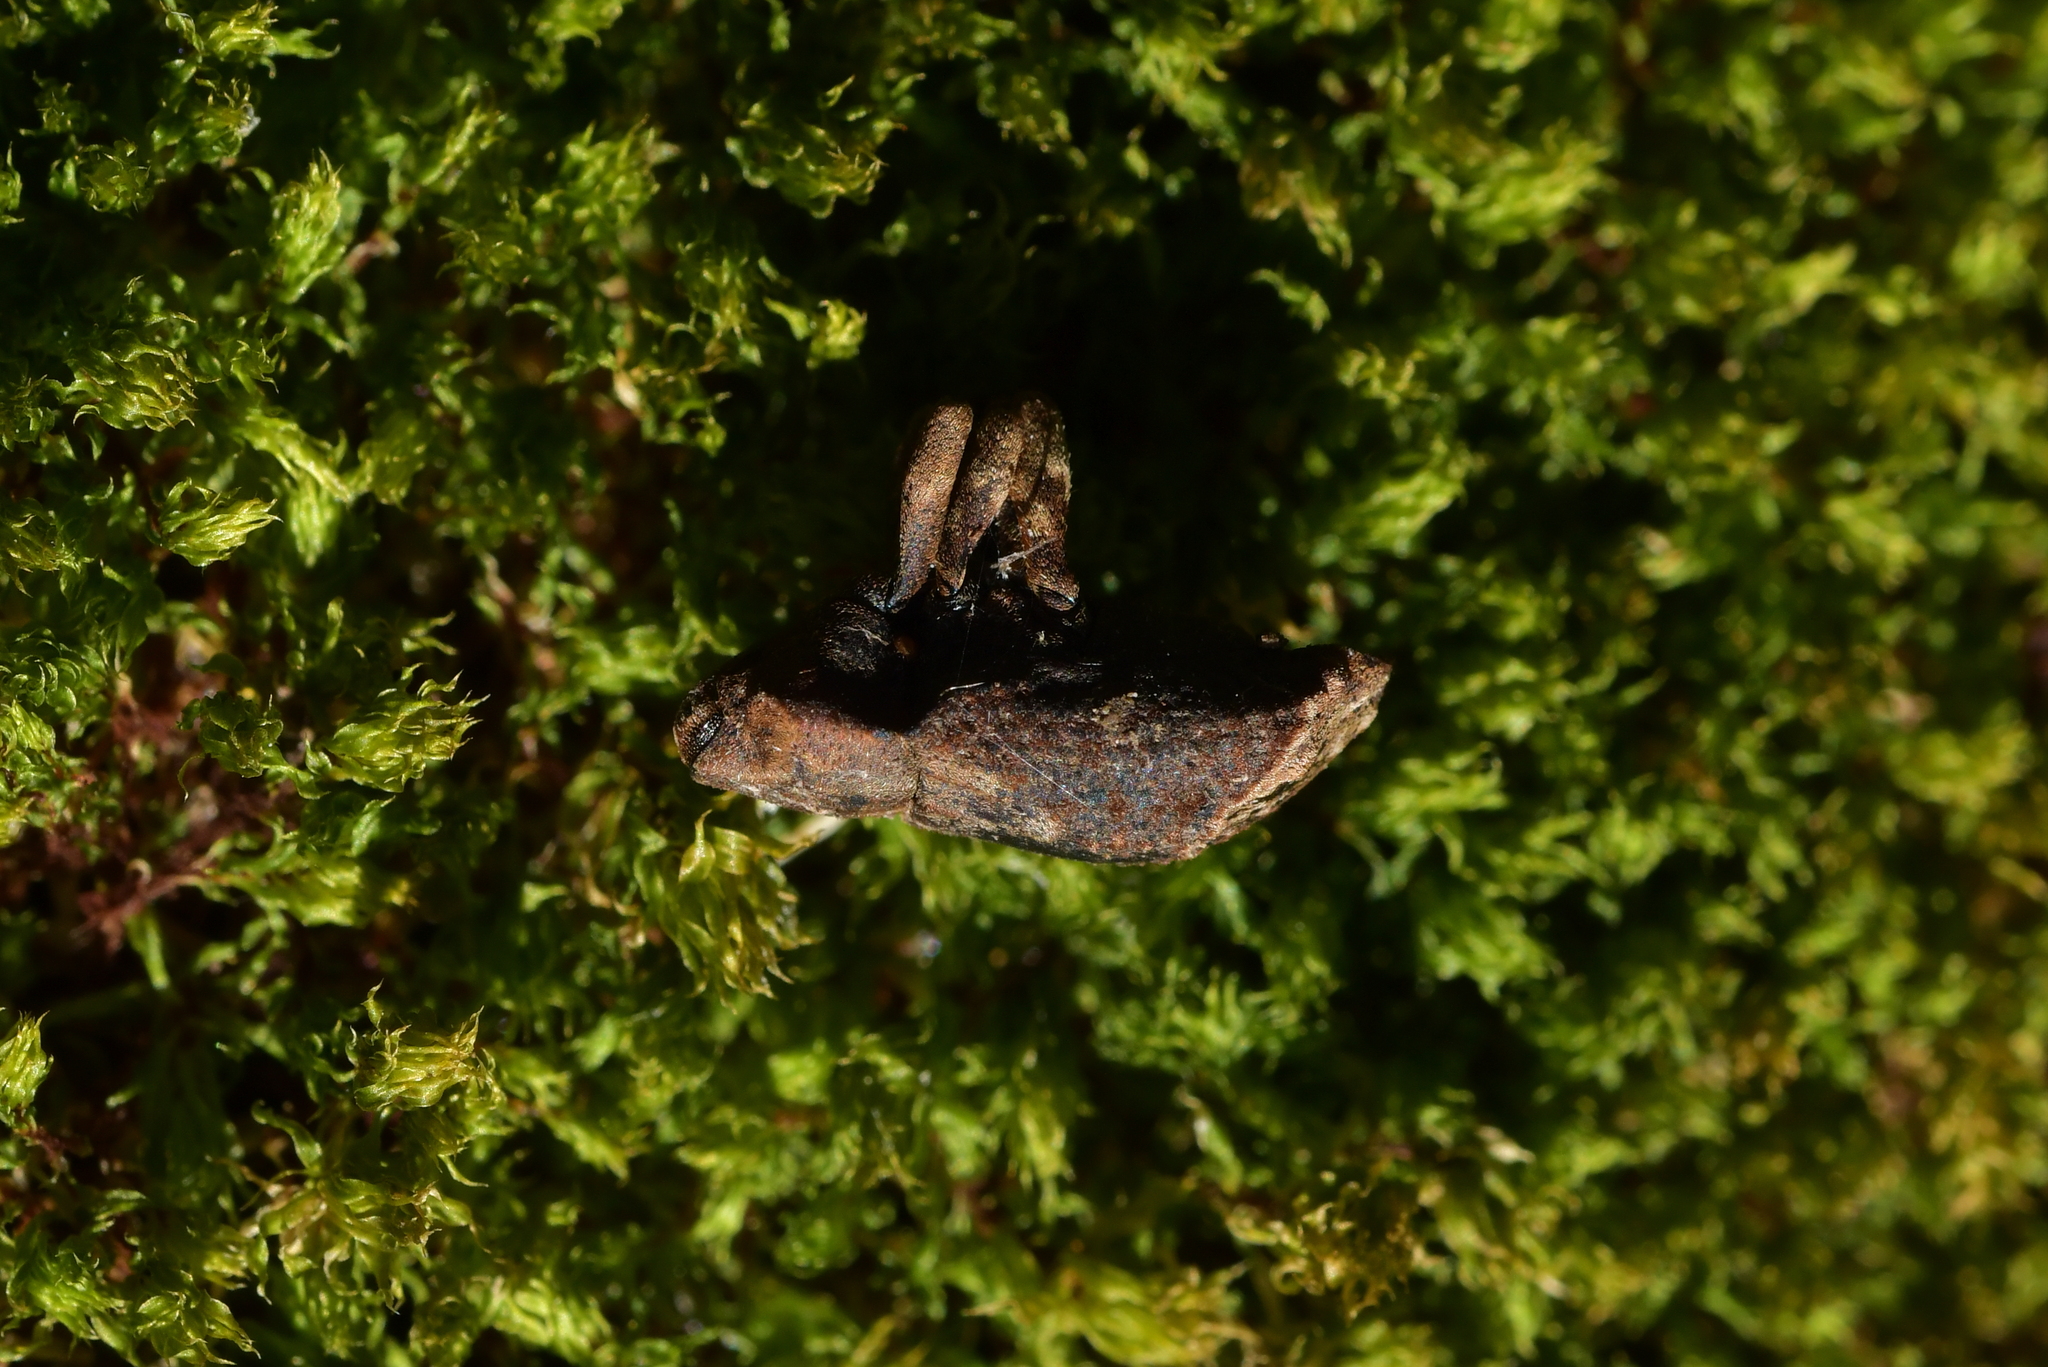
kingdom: Animalia
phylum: Arthropoda
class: Insecta
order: Coleoptera
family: Curculionidae
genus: Ectopsis
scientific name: Ectopsis ferrugalis
